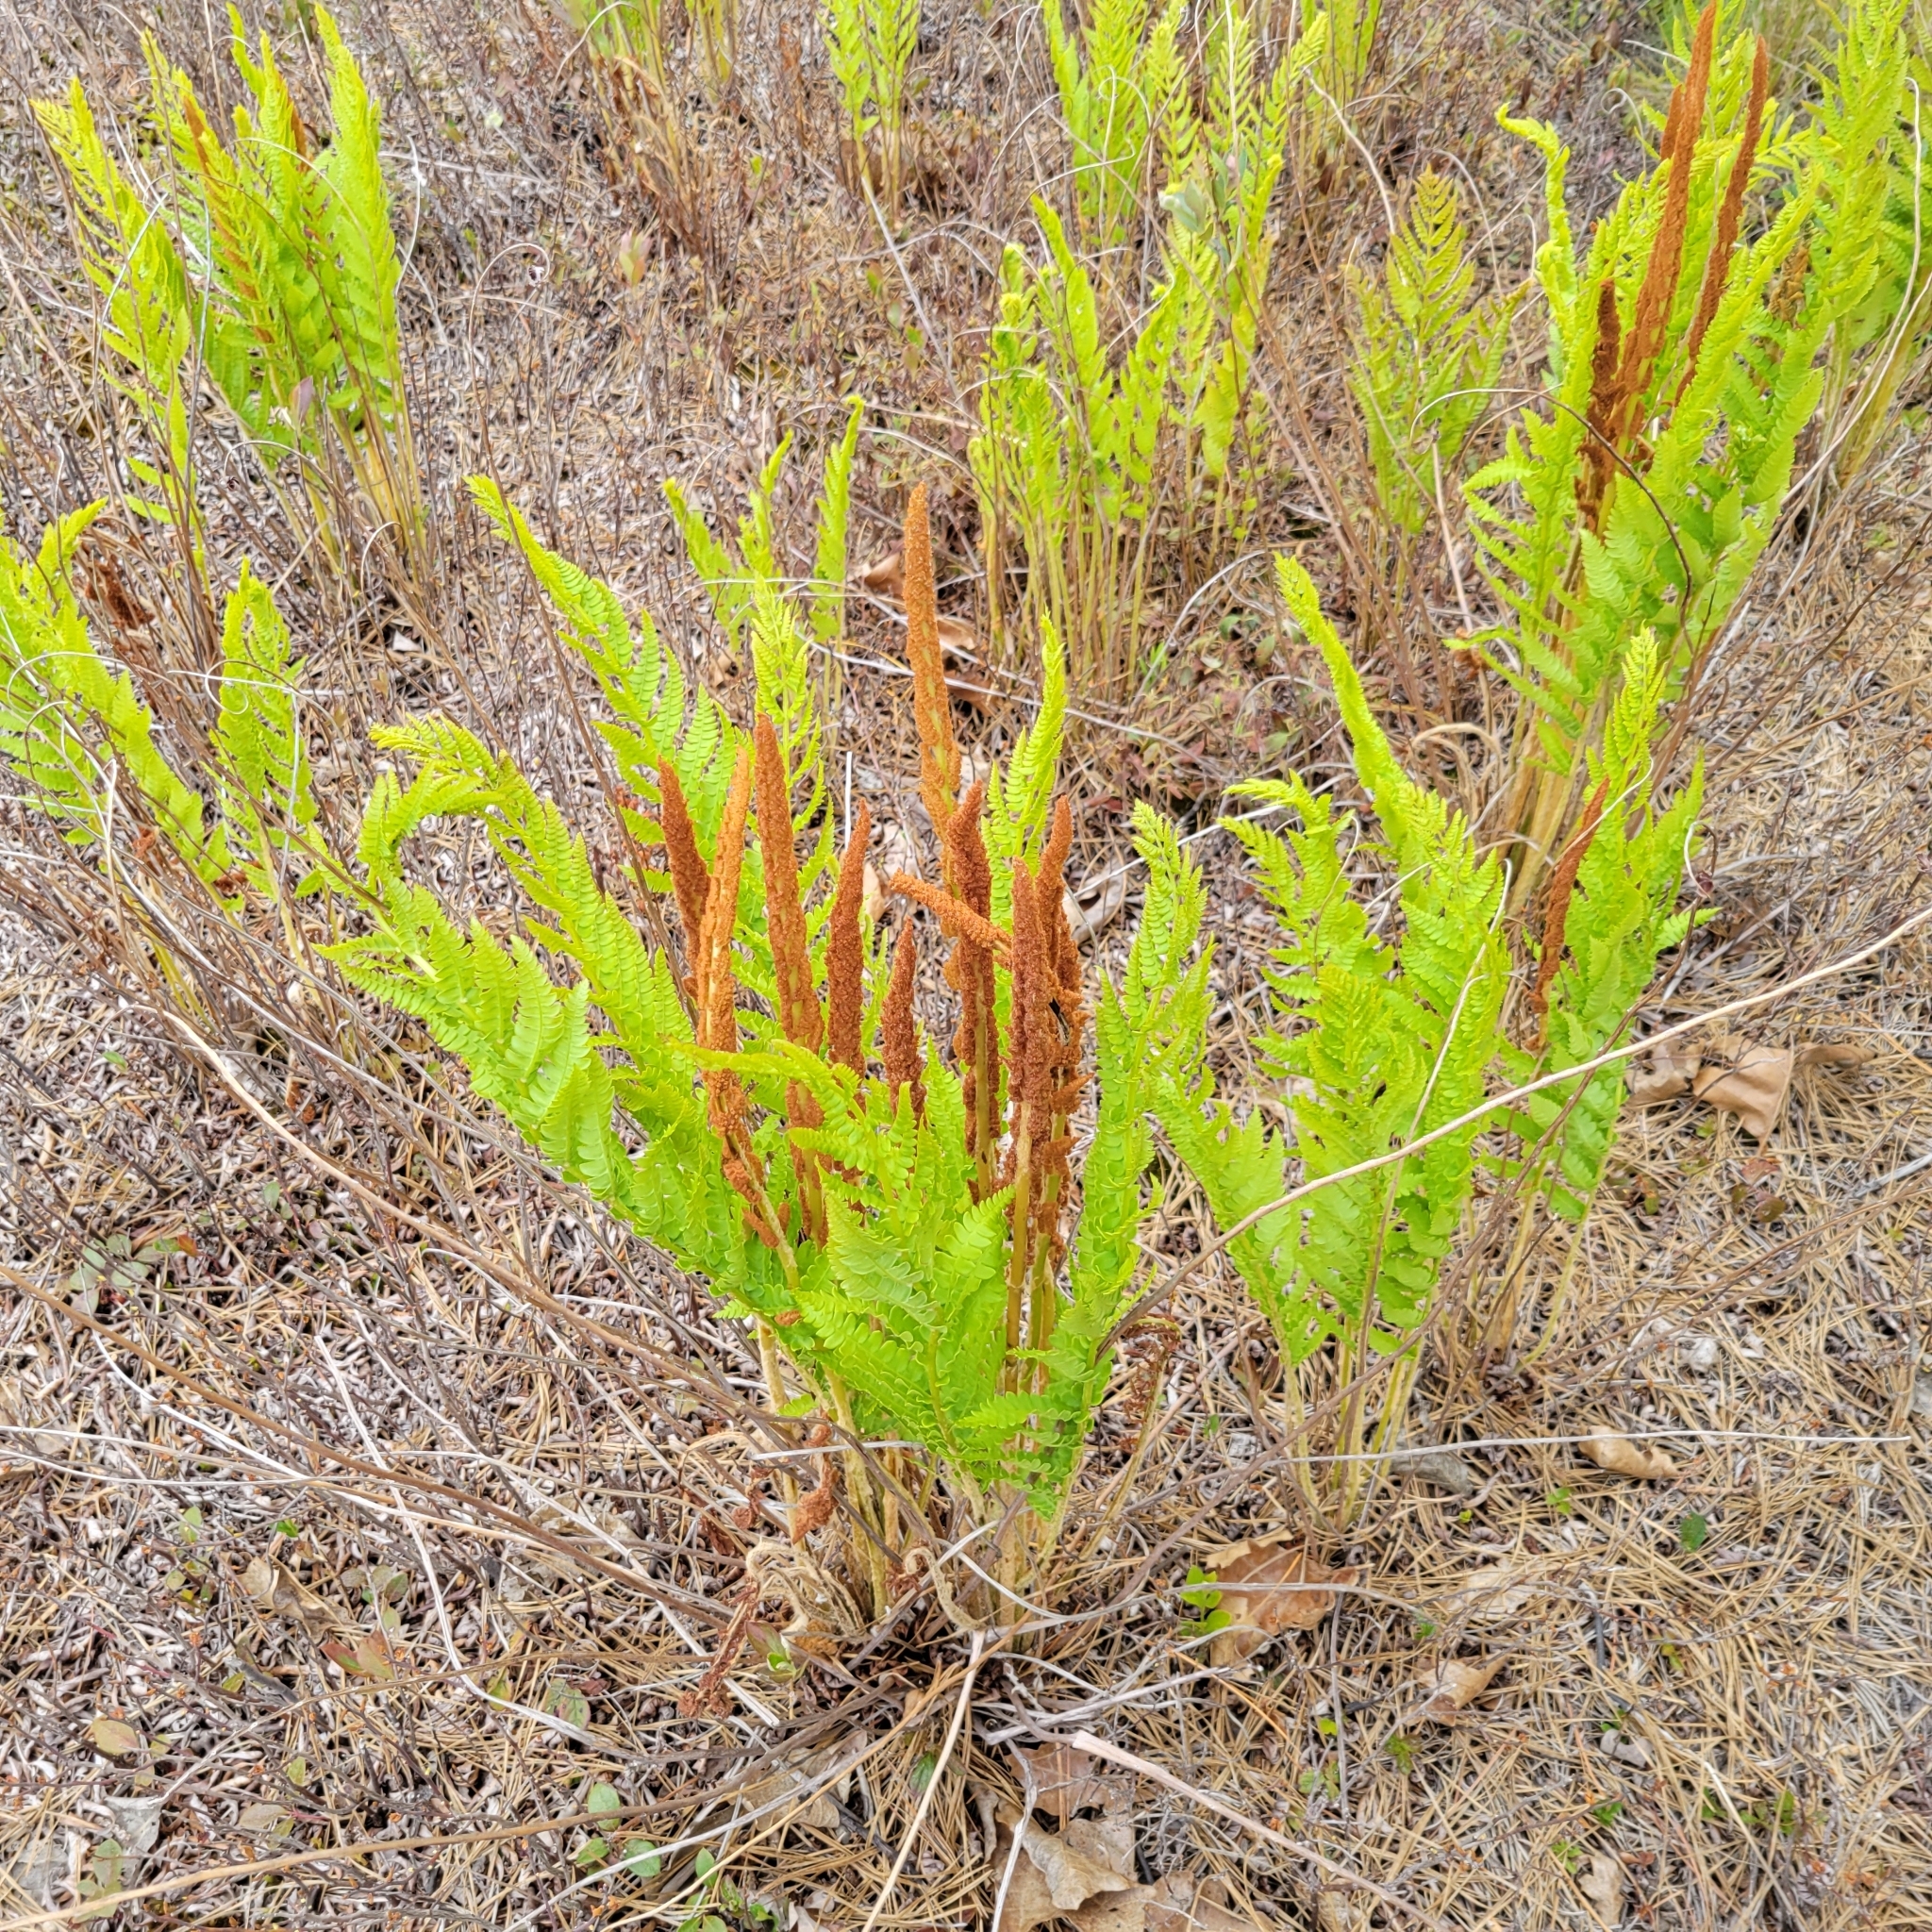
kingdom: Plantae
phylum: Tracheophyta
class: Polypodiopsida
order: Osmundales
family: Osmundaceae
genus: Osmundastrum
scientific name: Osmundastrum cinnamomeum
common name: Cinnamon fern
